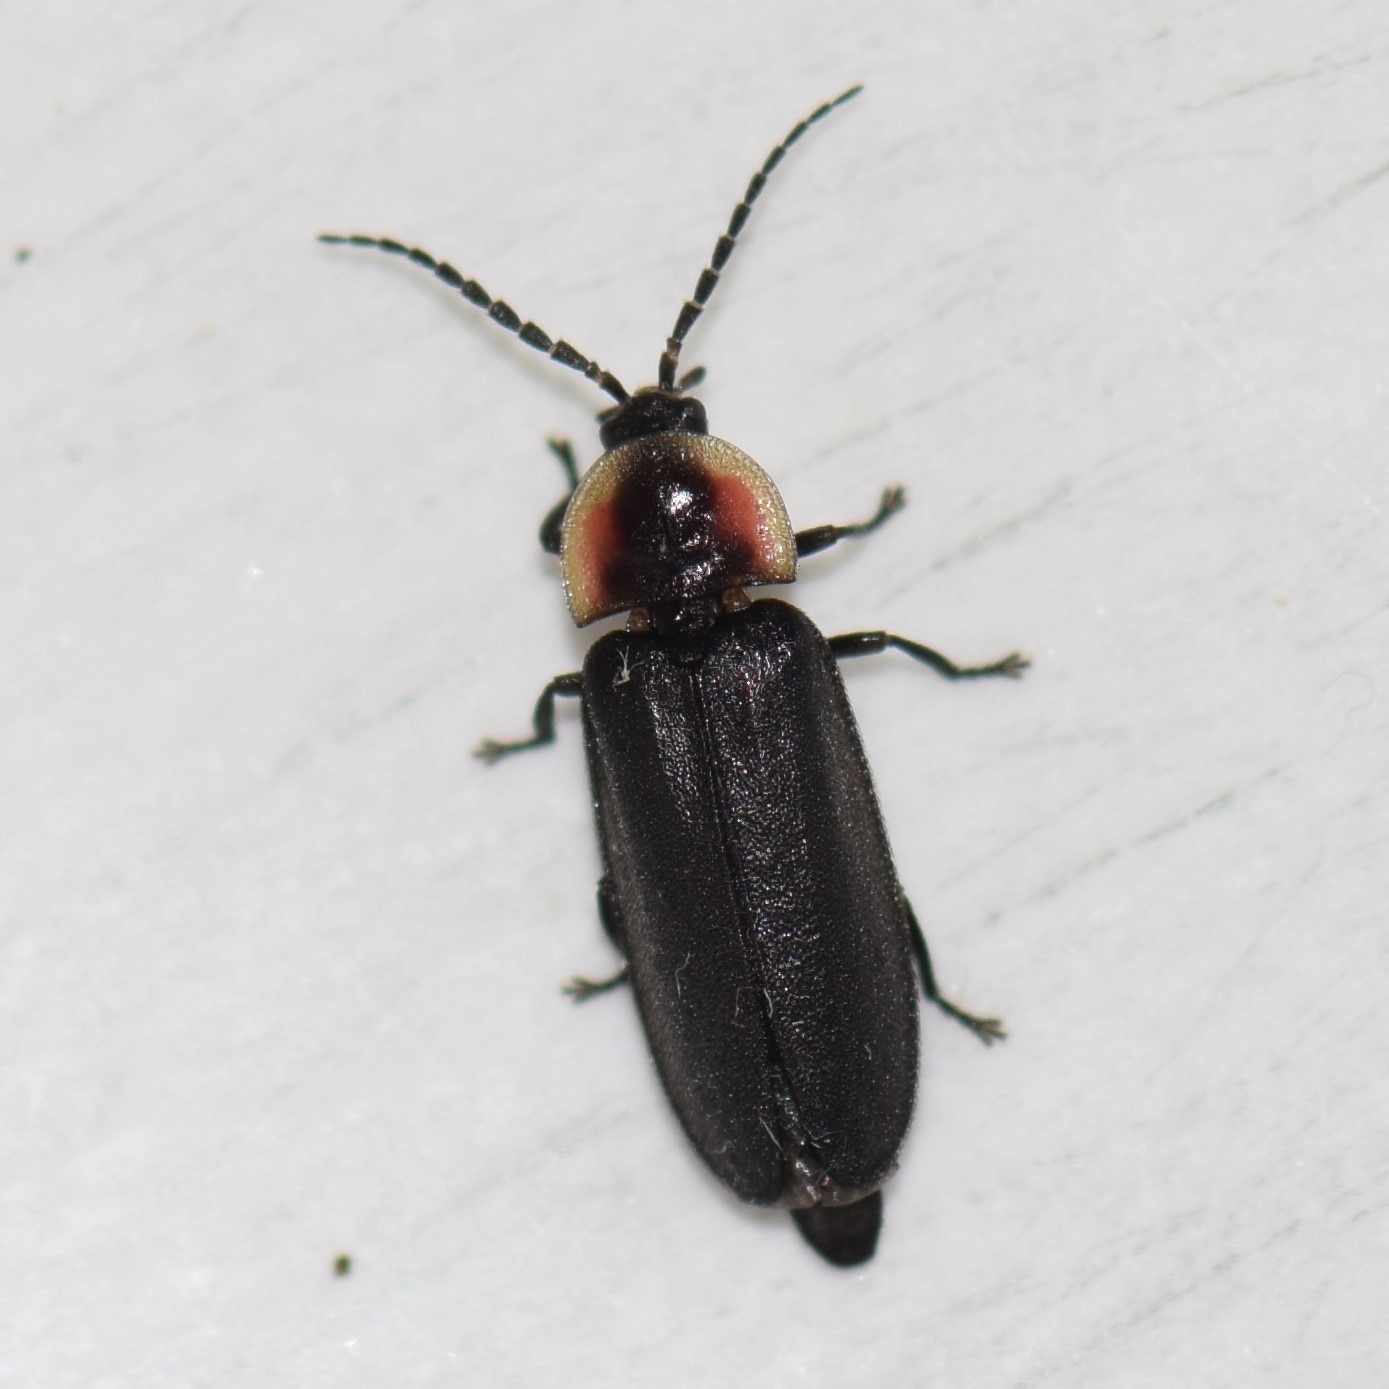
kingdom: Animalia
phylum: Arthropoda
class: Insecta
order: Coleoptera
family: Lampyridae
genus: Pyropyga
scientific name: Pyropyga decipiens
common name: Sneaky elf
